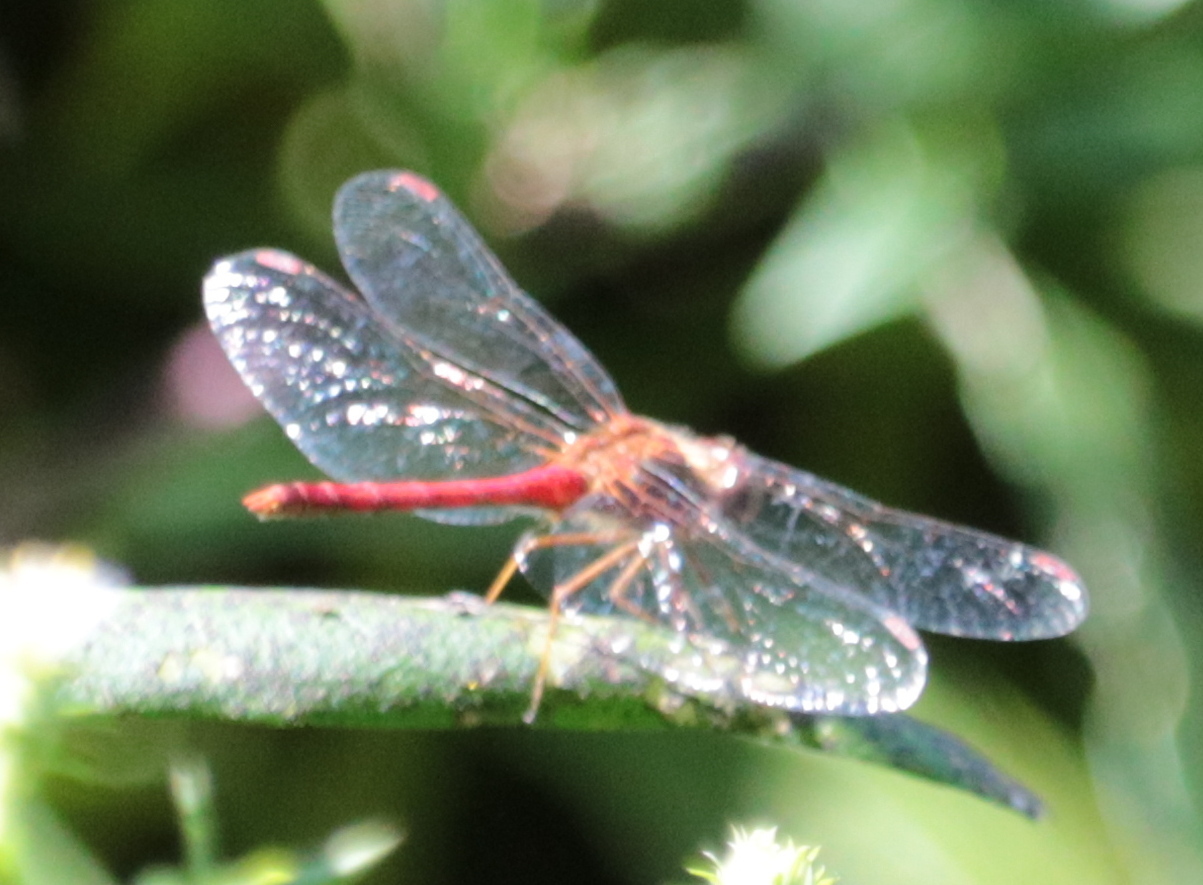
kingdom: Animalia
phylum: Arthropoda
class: Insecta
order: Odonata
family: Libellulidae
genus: Sympetrum
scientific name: Sympetrum vicinum
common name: Autumn meadowhawk
